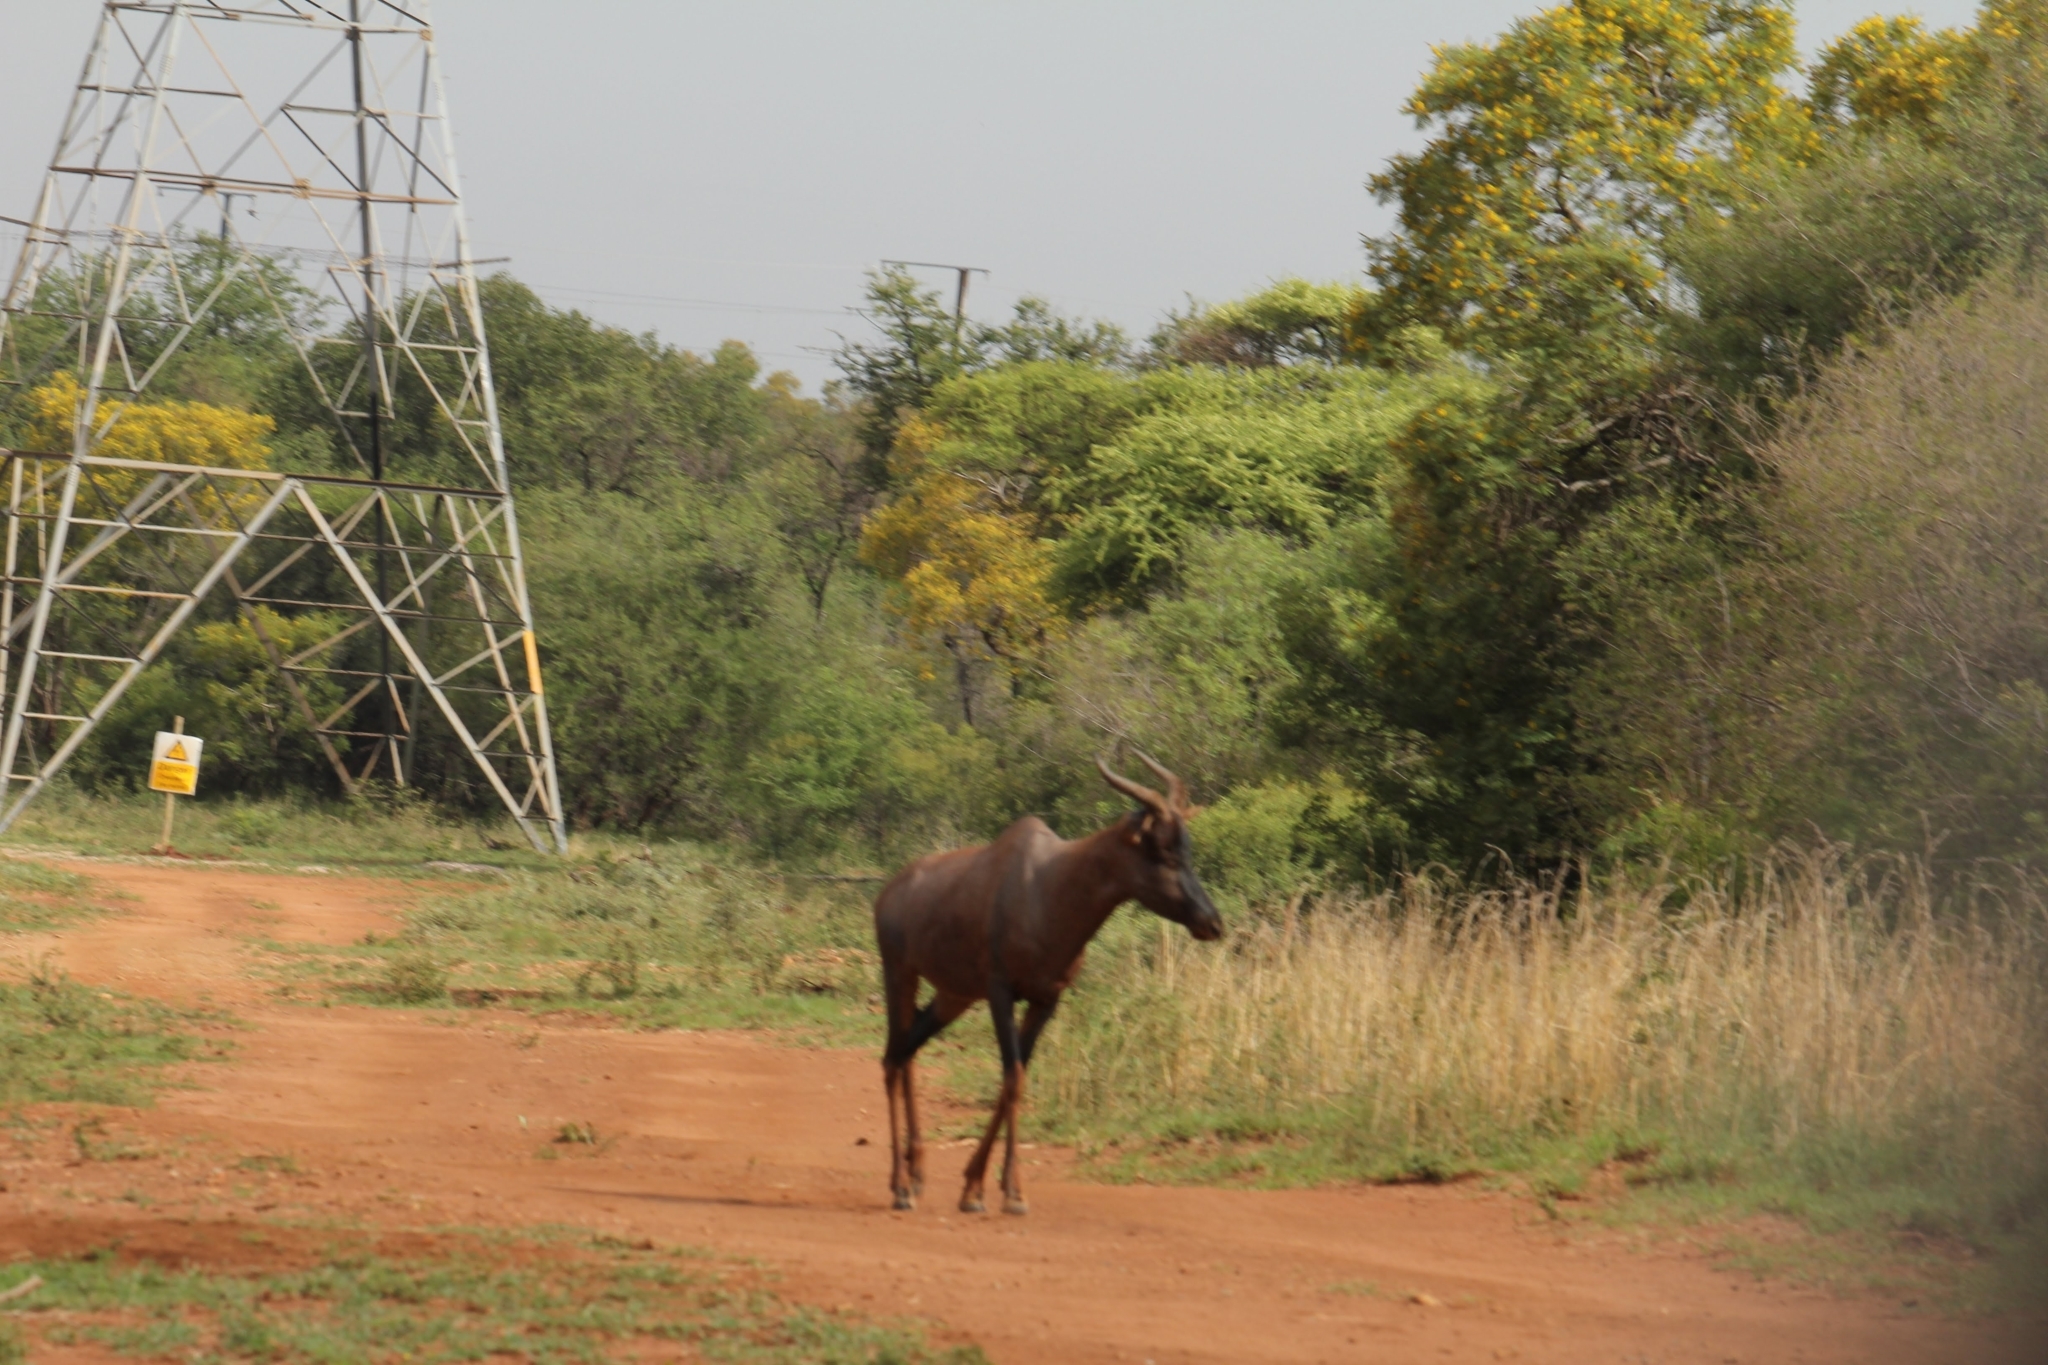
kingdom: Animalia
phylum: Chordata
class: Mammalia
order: Artiodactyla
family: Bovidae
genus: Damaliscus
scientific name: Damaliscus lunatus
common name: Common tsessebe
